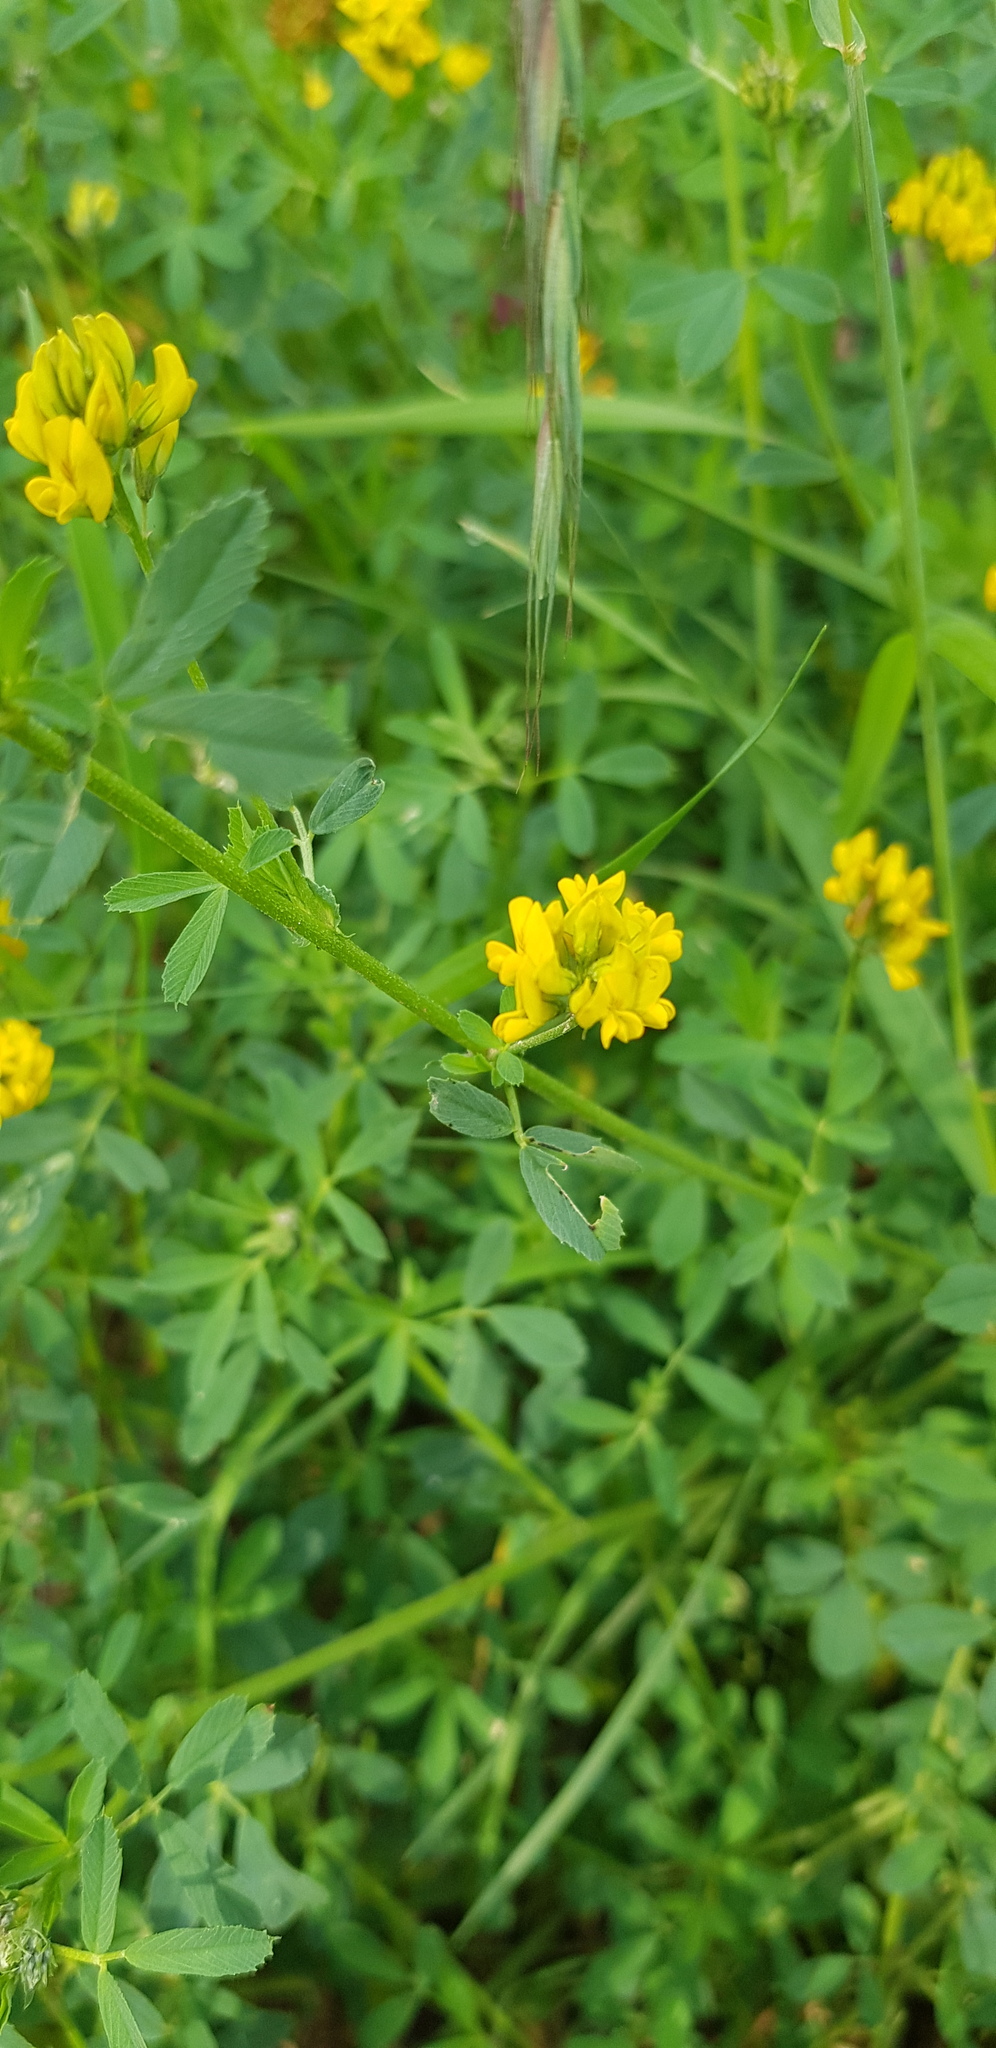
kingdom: Plantae
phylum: Tracheophyta
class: Magnoliopsida
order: Fabales
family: Fabaceae
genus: Medicago
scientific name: Medicago falcata
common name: Sickle medick
